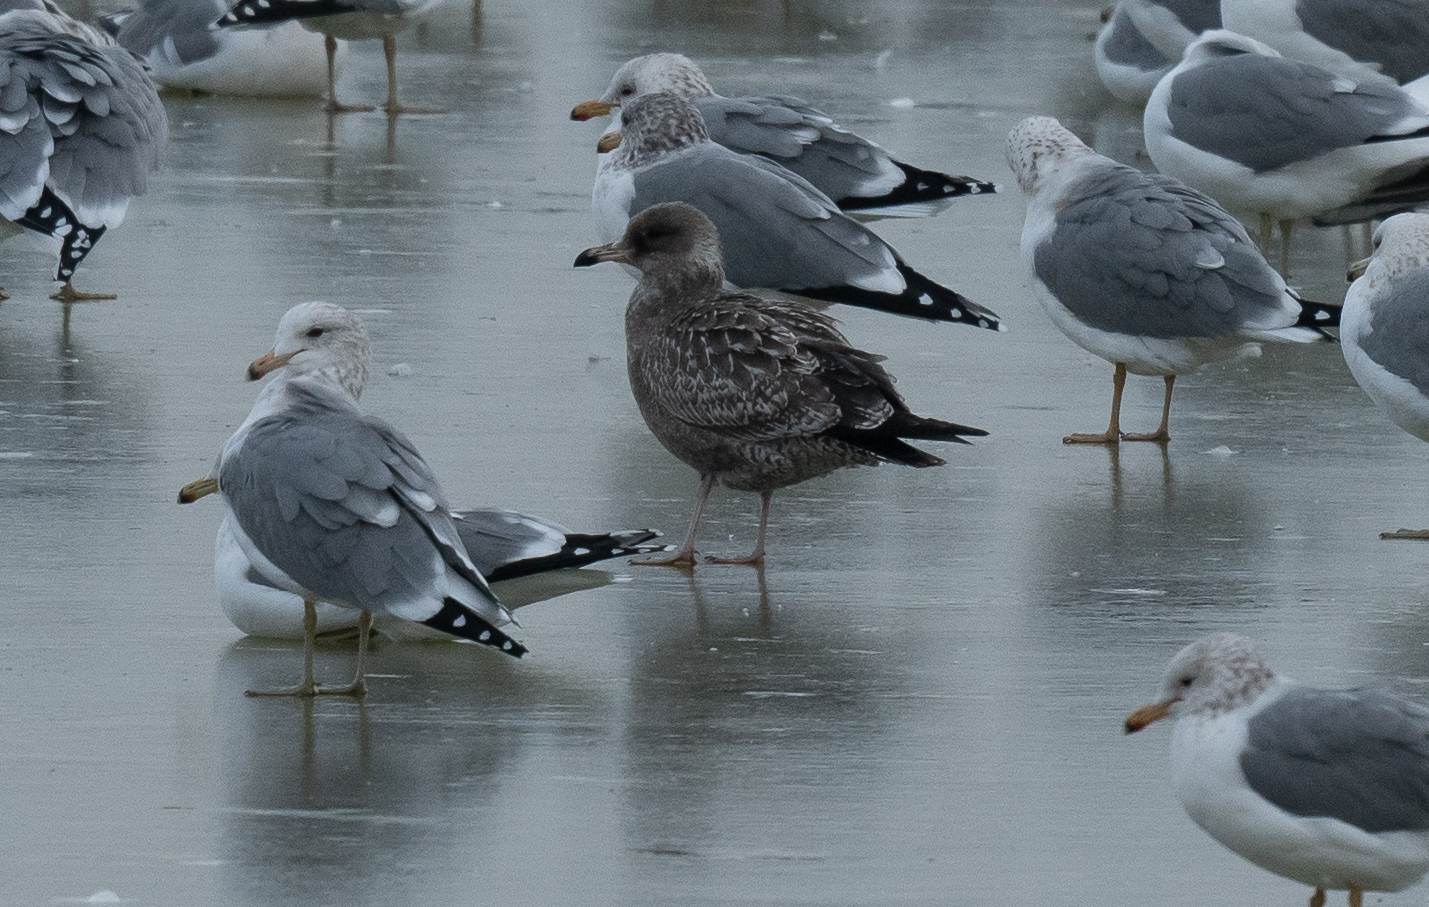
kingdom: Animalia
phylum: Chordata
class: Aves
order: Charadriiformes
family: Laridae
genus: Larus
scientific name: Larus californicus
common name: California gull
